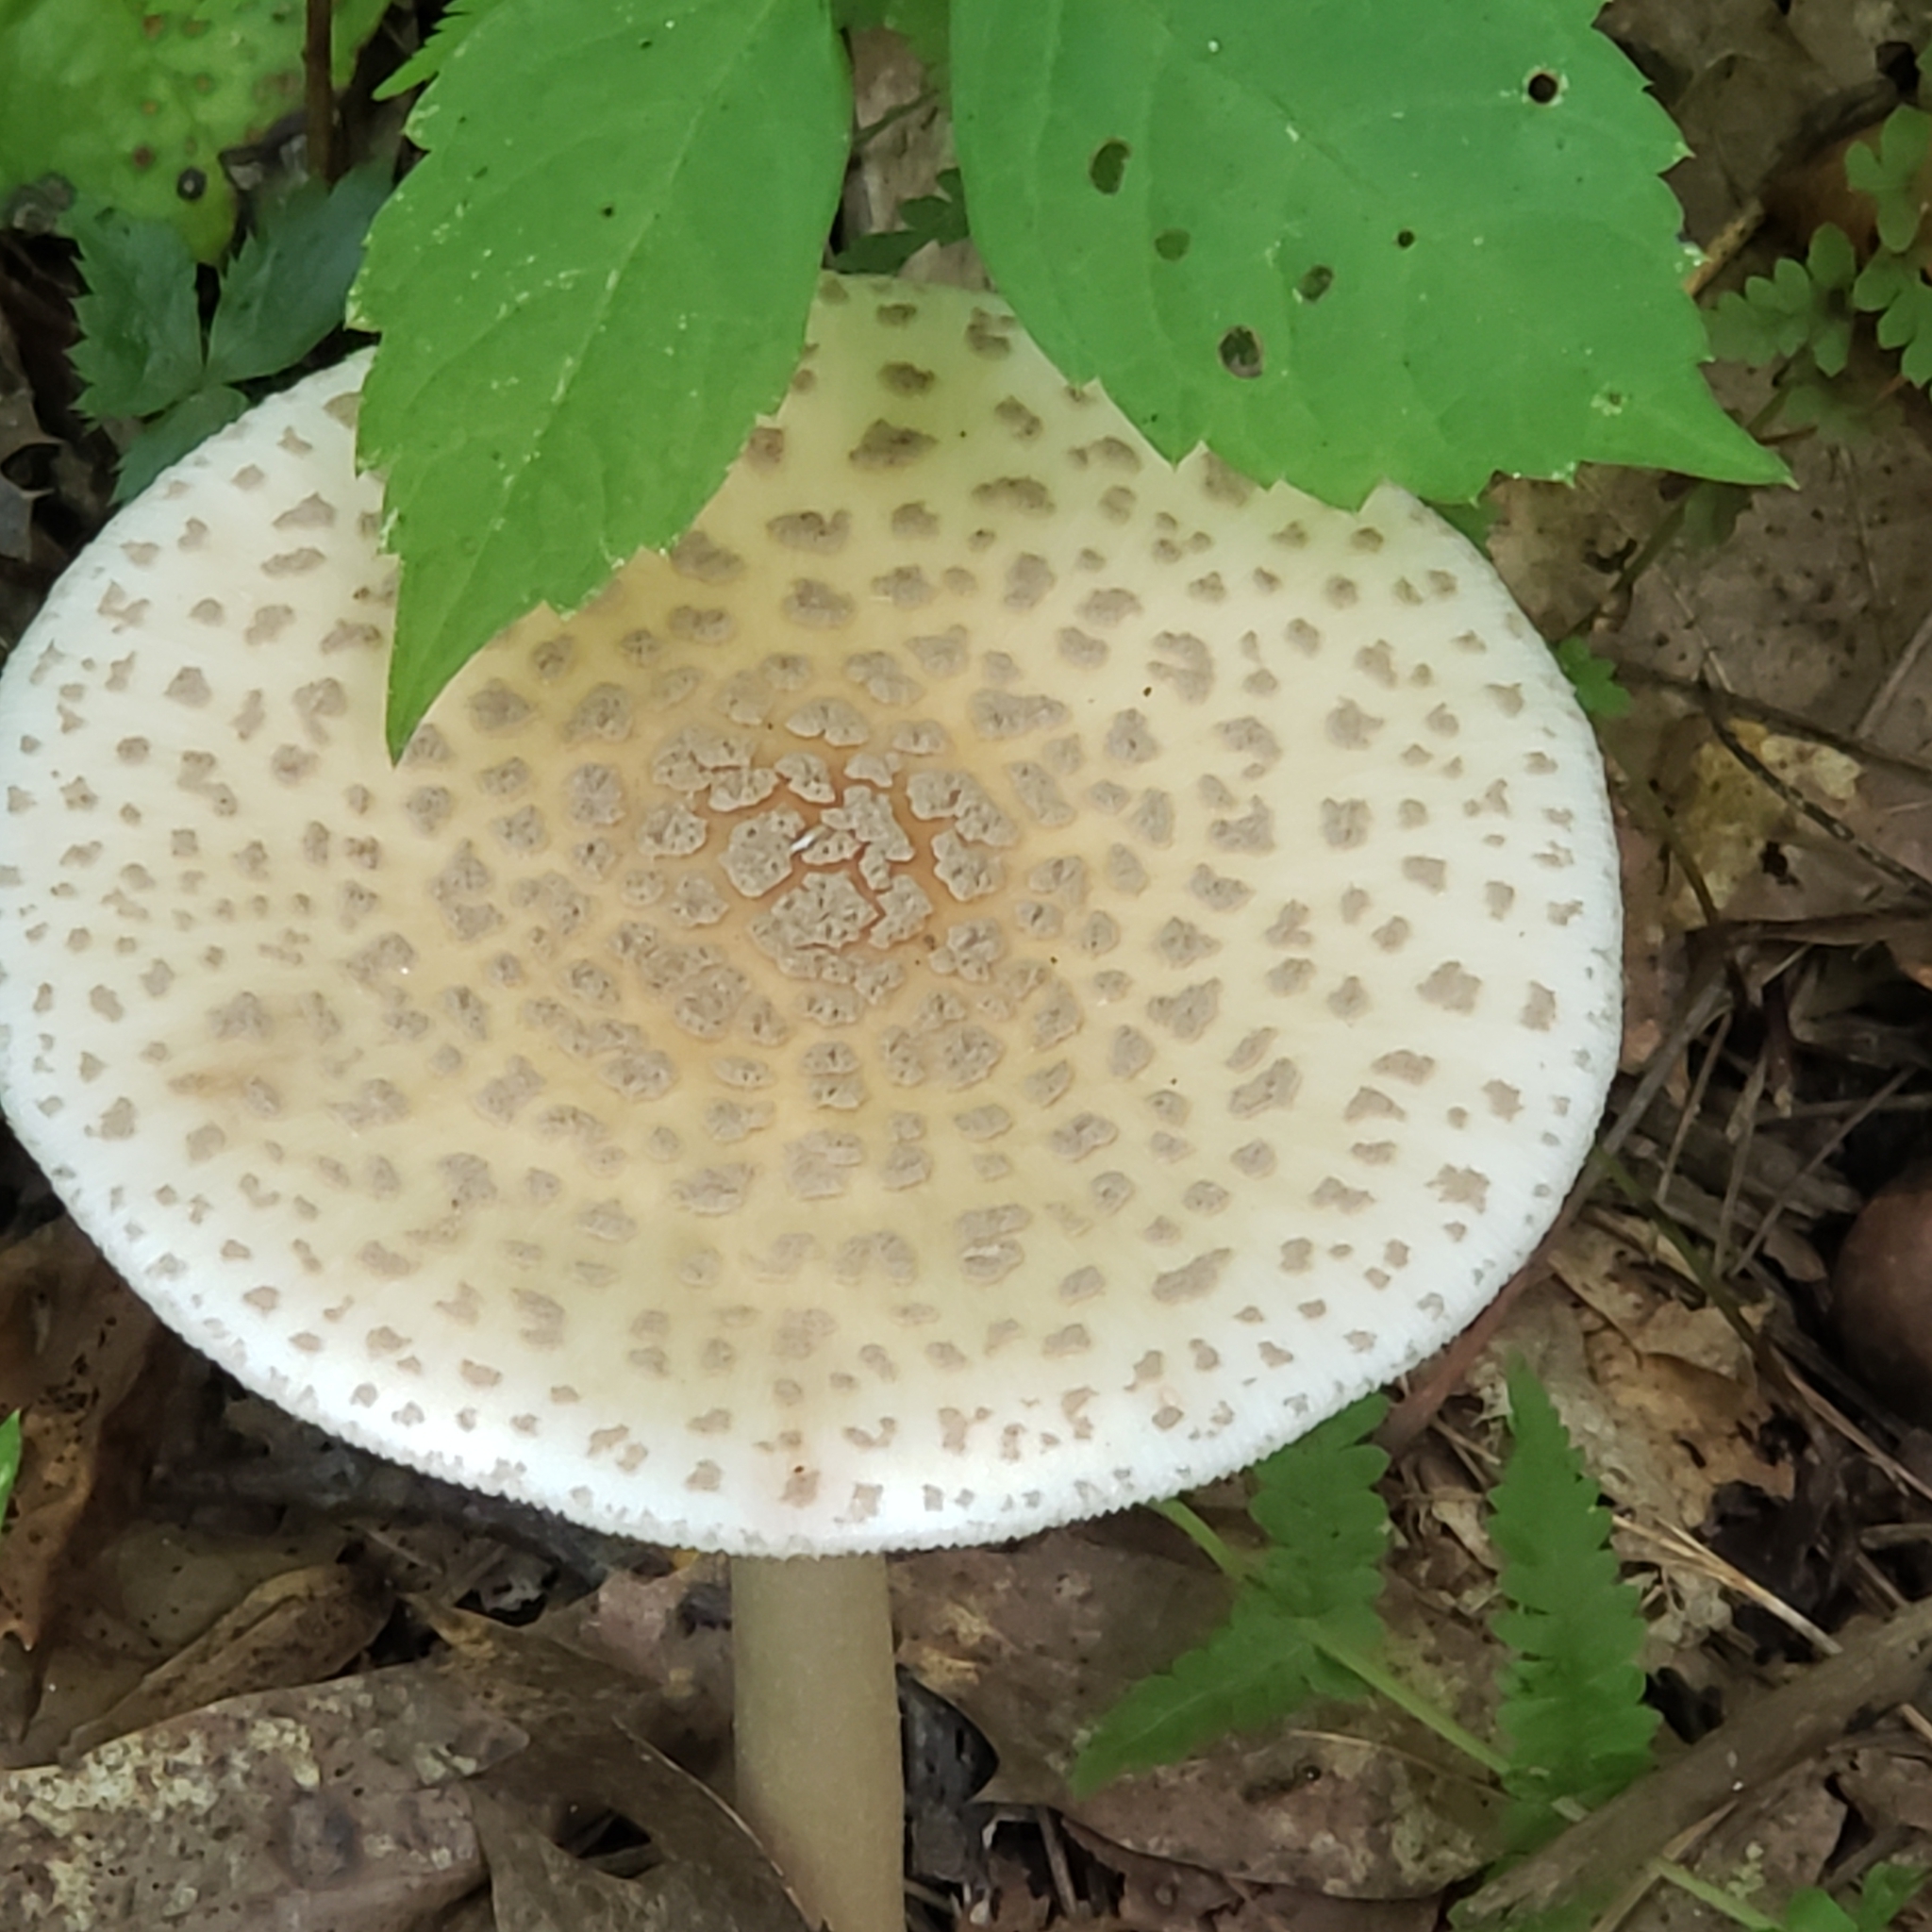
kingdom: Fungi
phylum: Basidiomycota
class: Agaricomycetes
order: Agaricales
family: Amanitaceae
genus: Amanita
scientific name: Amanita rubescens
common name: Blusher
